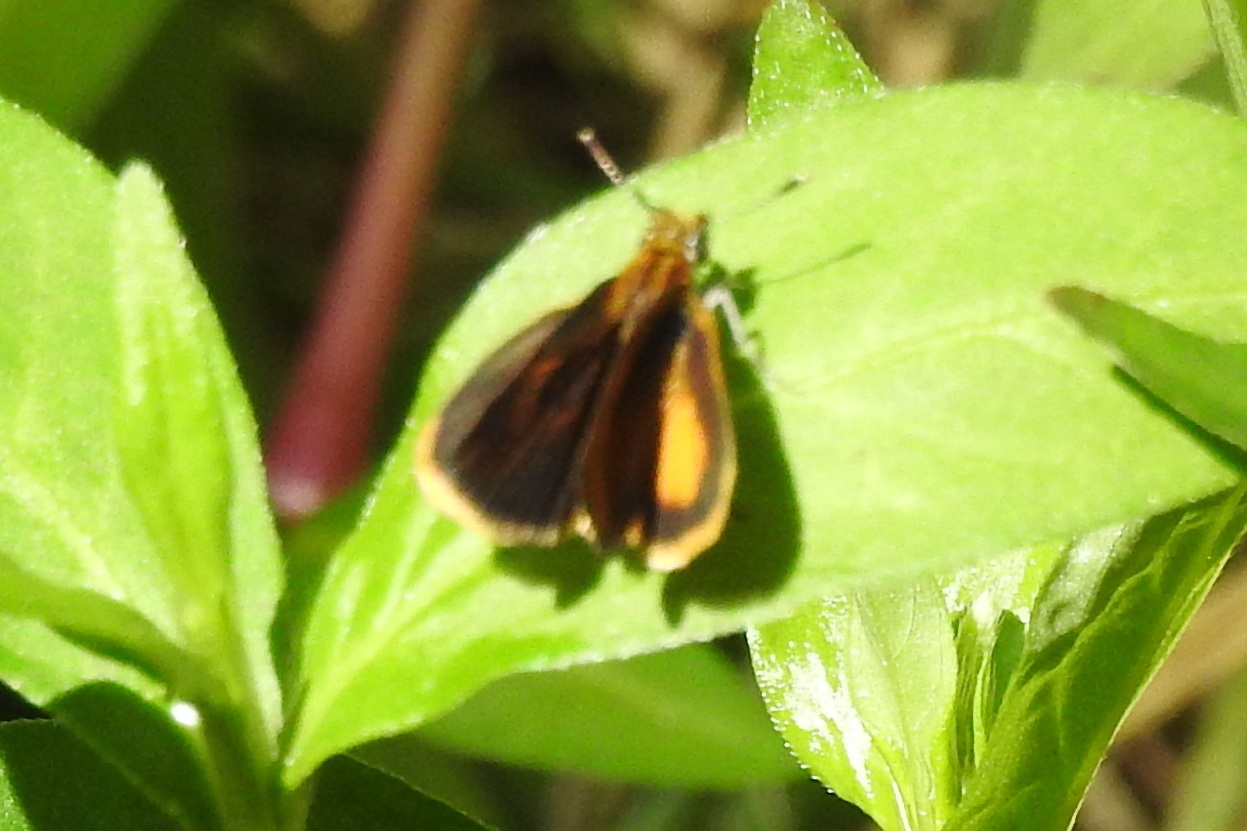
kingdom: Animalia
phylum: Arthropoda
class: Insecta
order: Lepidoptera
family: Hesperiidae
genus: Ancyloxypha
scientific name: Ancyloxypha numitor
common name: Least skipper
